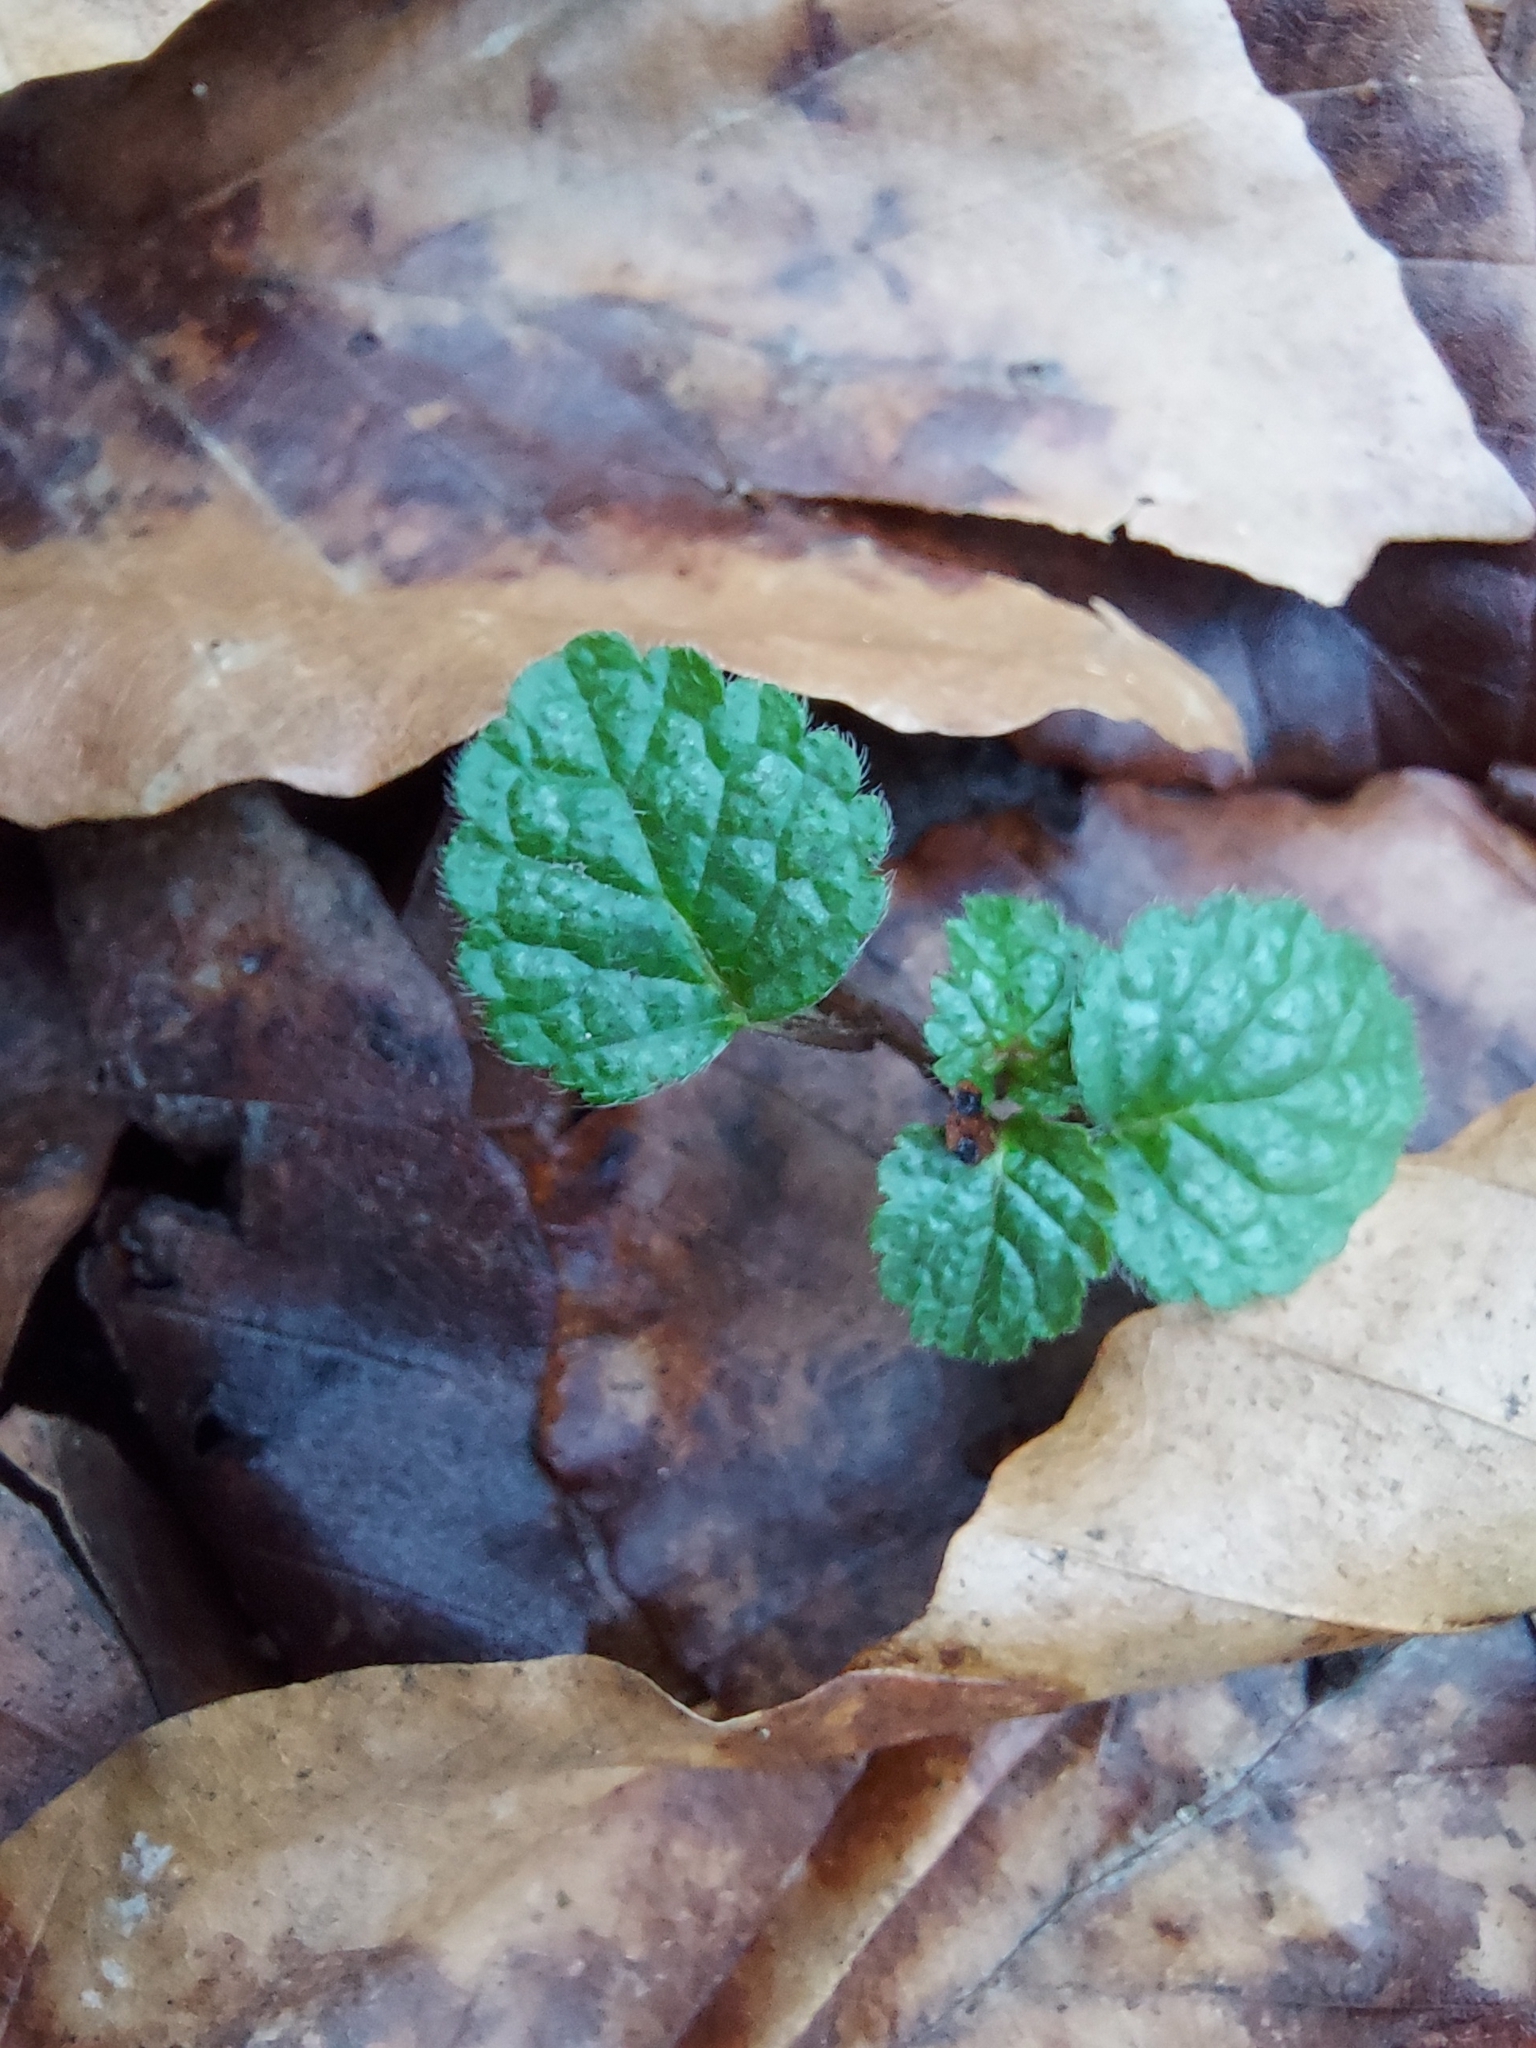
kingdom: Plantae
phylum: Tracheophyta
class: Magnoliopsida
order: Lamiales
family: Lamiaceae
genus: Lamium
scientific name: Lamium galeobdolon
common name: Yellow archangel
